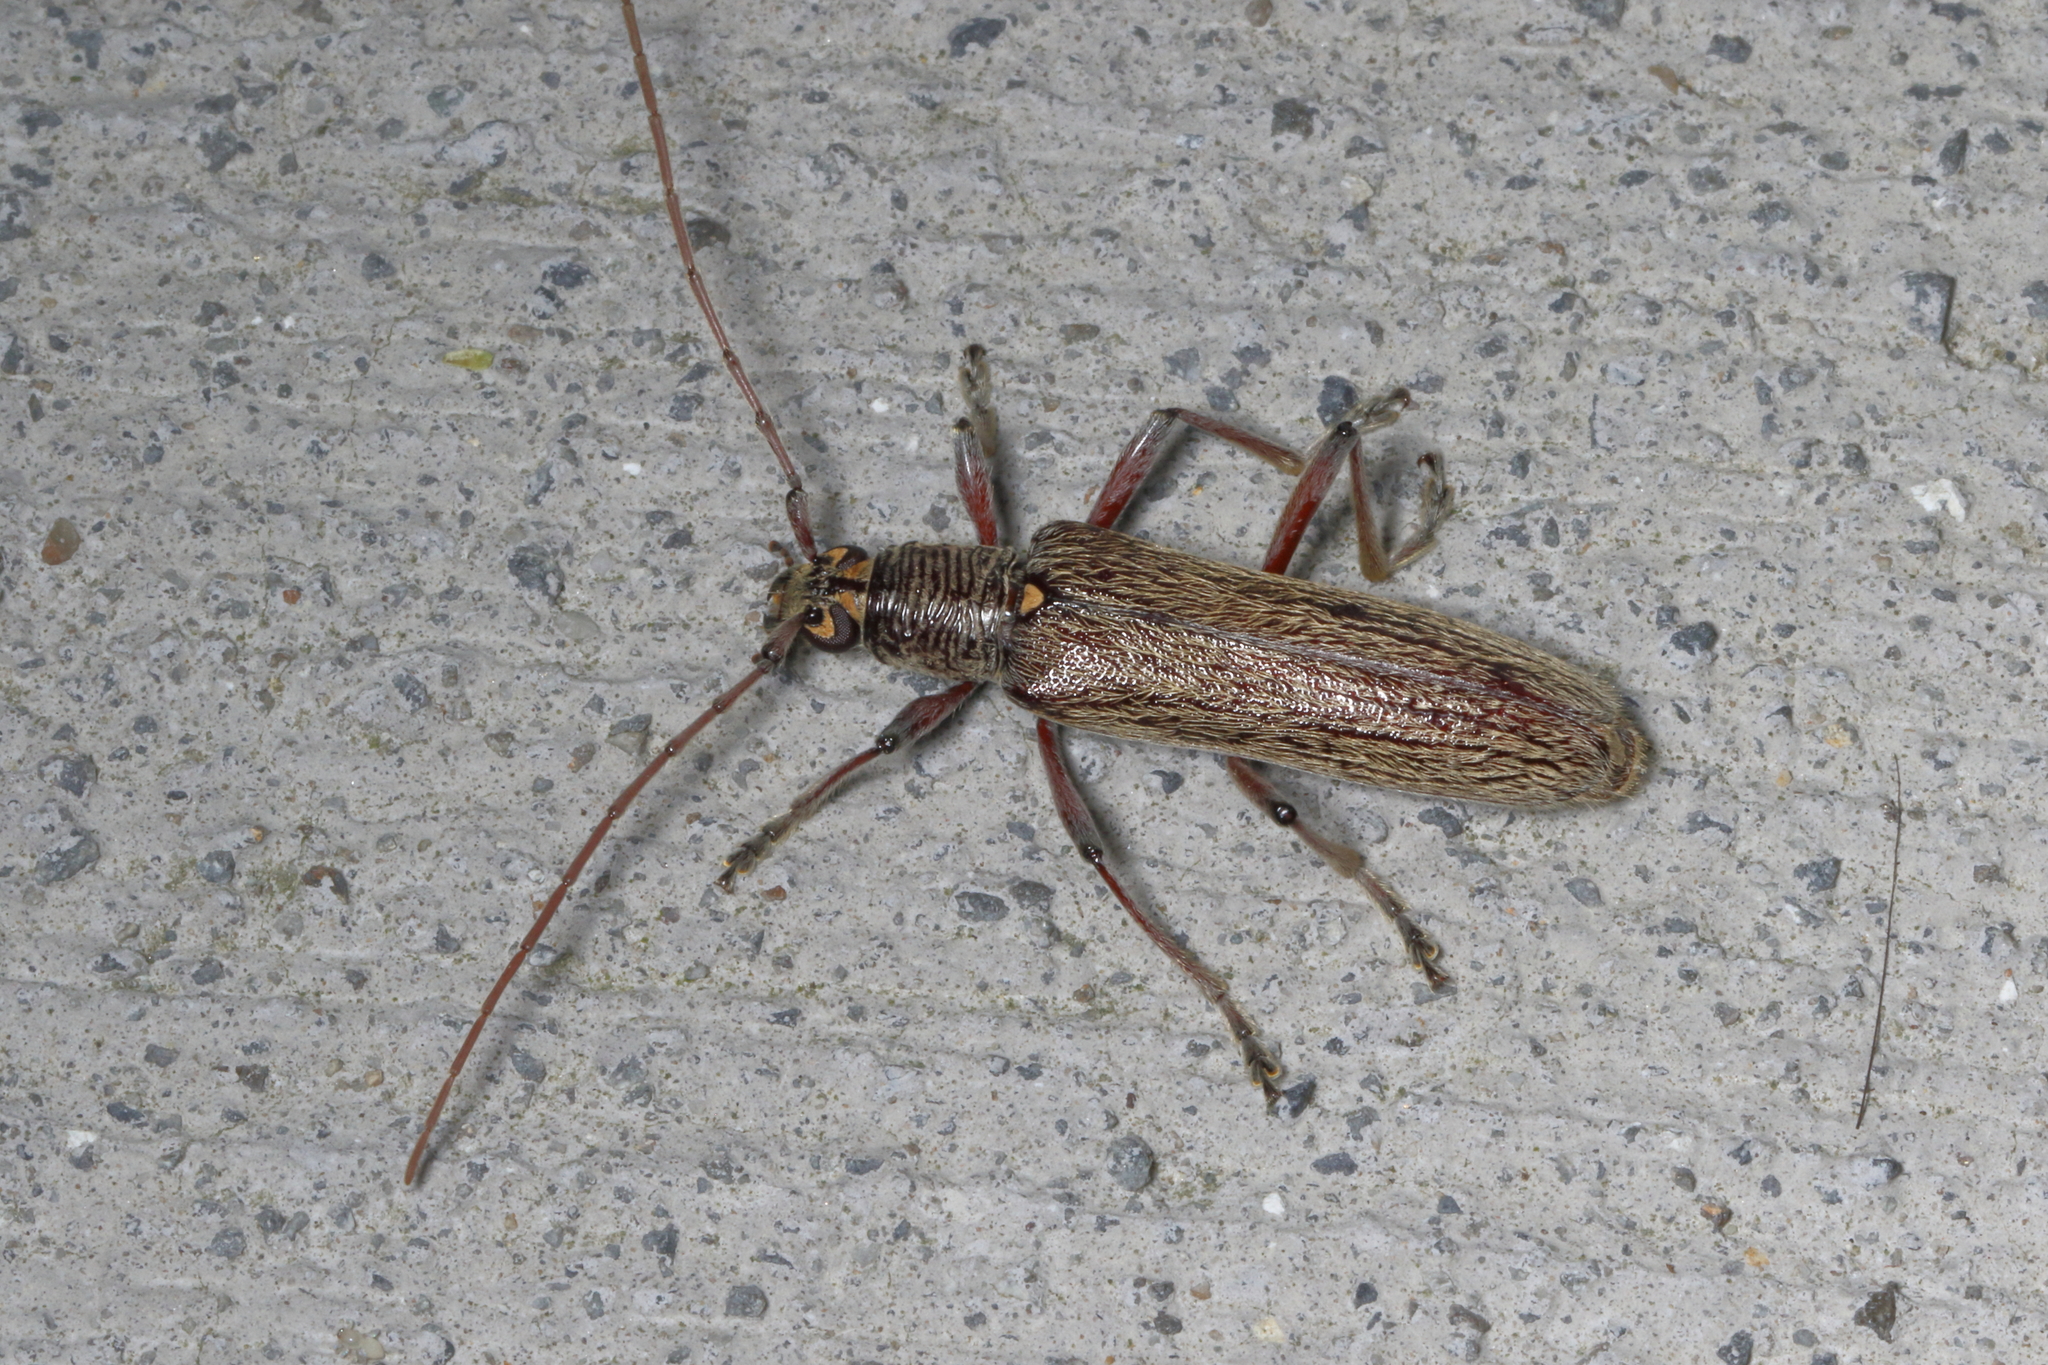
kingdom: Animalia
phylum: Arthropoda
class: Insecta
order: Coleoptera
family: Cerambycidae
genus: Oemona
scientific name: Oemona hirta
